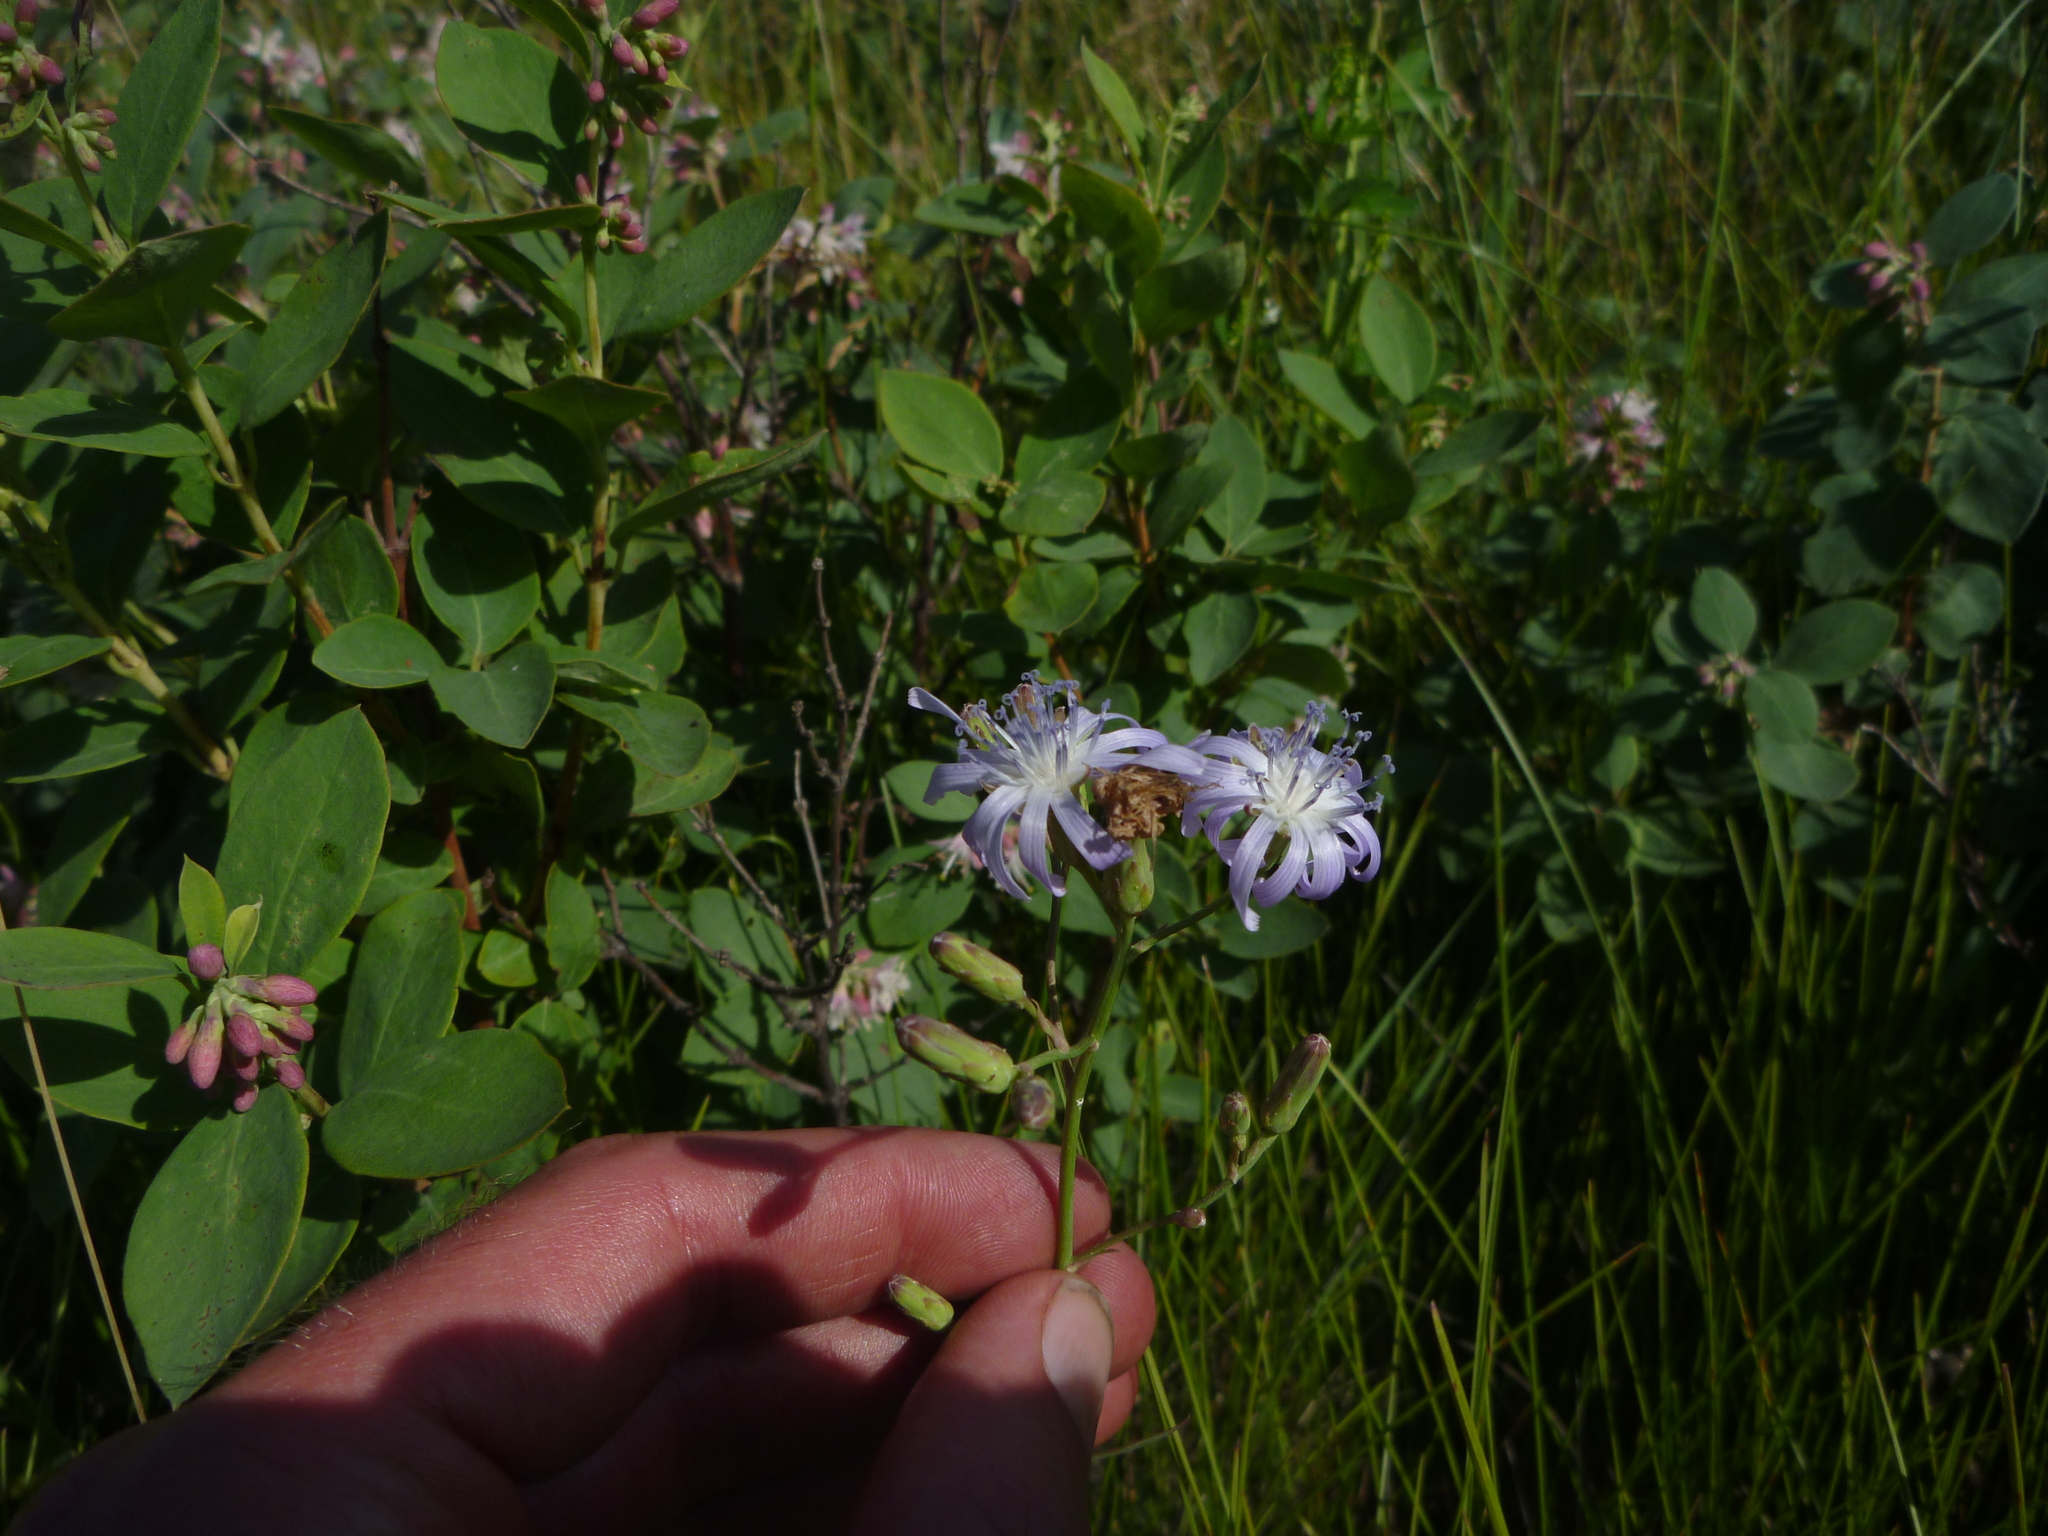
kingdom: Plantae
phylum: Tracheophyta
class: Magnoliopsida
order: Asterales
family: Asteraceae
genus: Lactuca
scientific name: Lactuca pulchella
